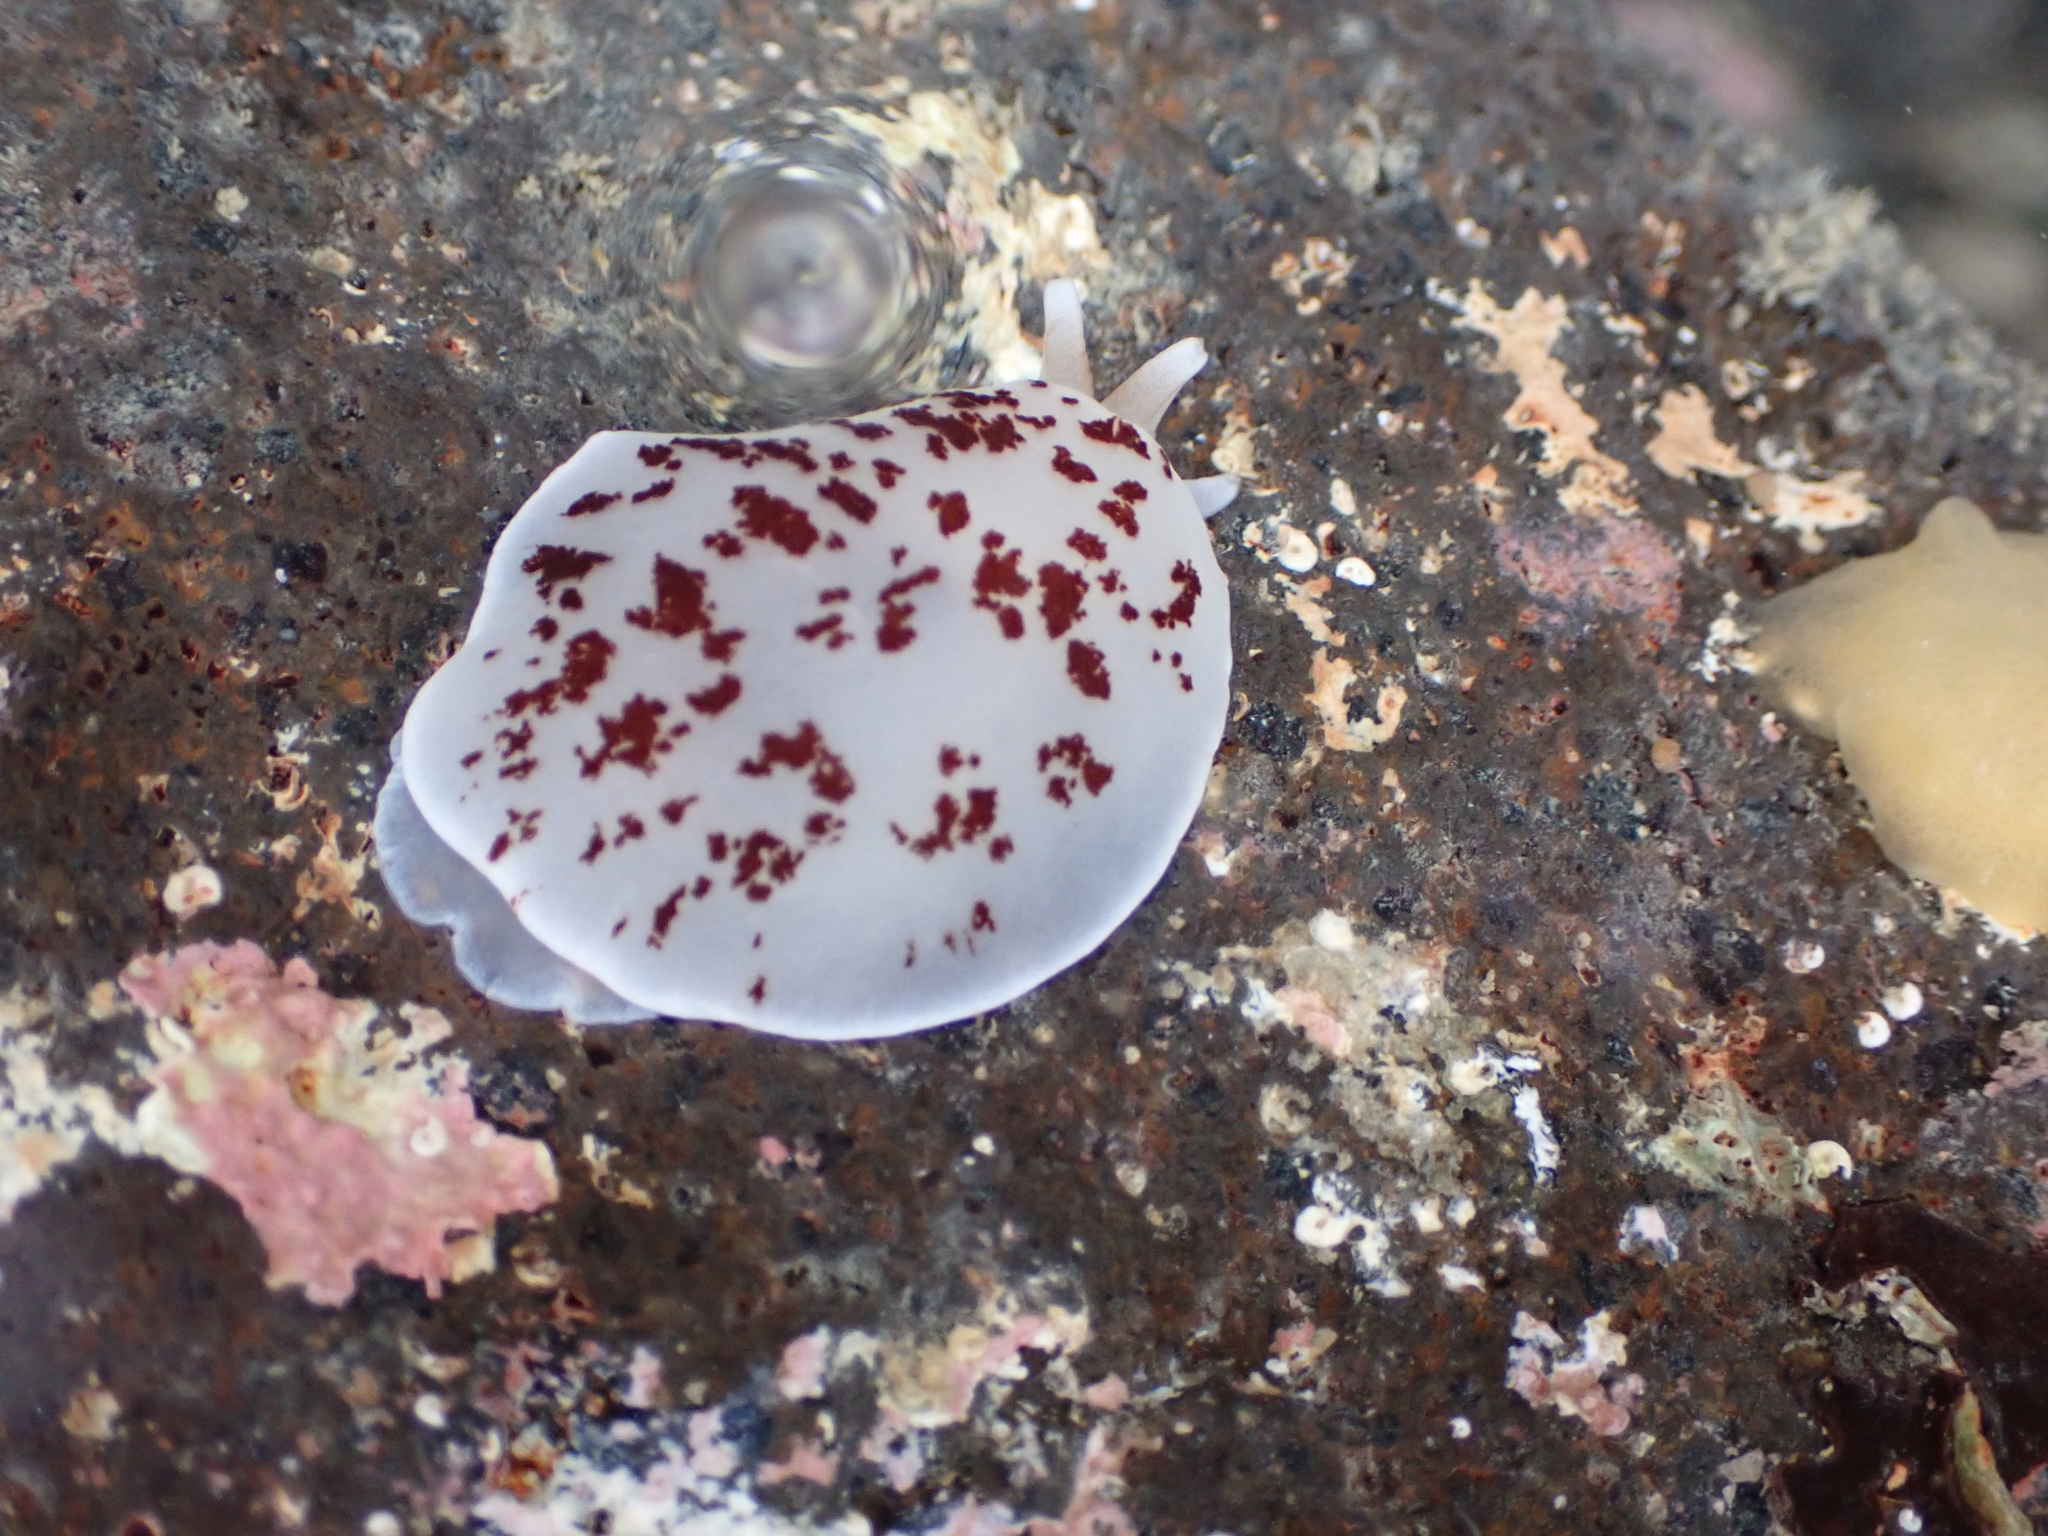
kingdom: Animalia
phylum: Mollusca
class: Gastropoda
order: Pleurobranchida
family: Pleurobranchidae
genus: Berthella
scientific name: Berthella ornata
